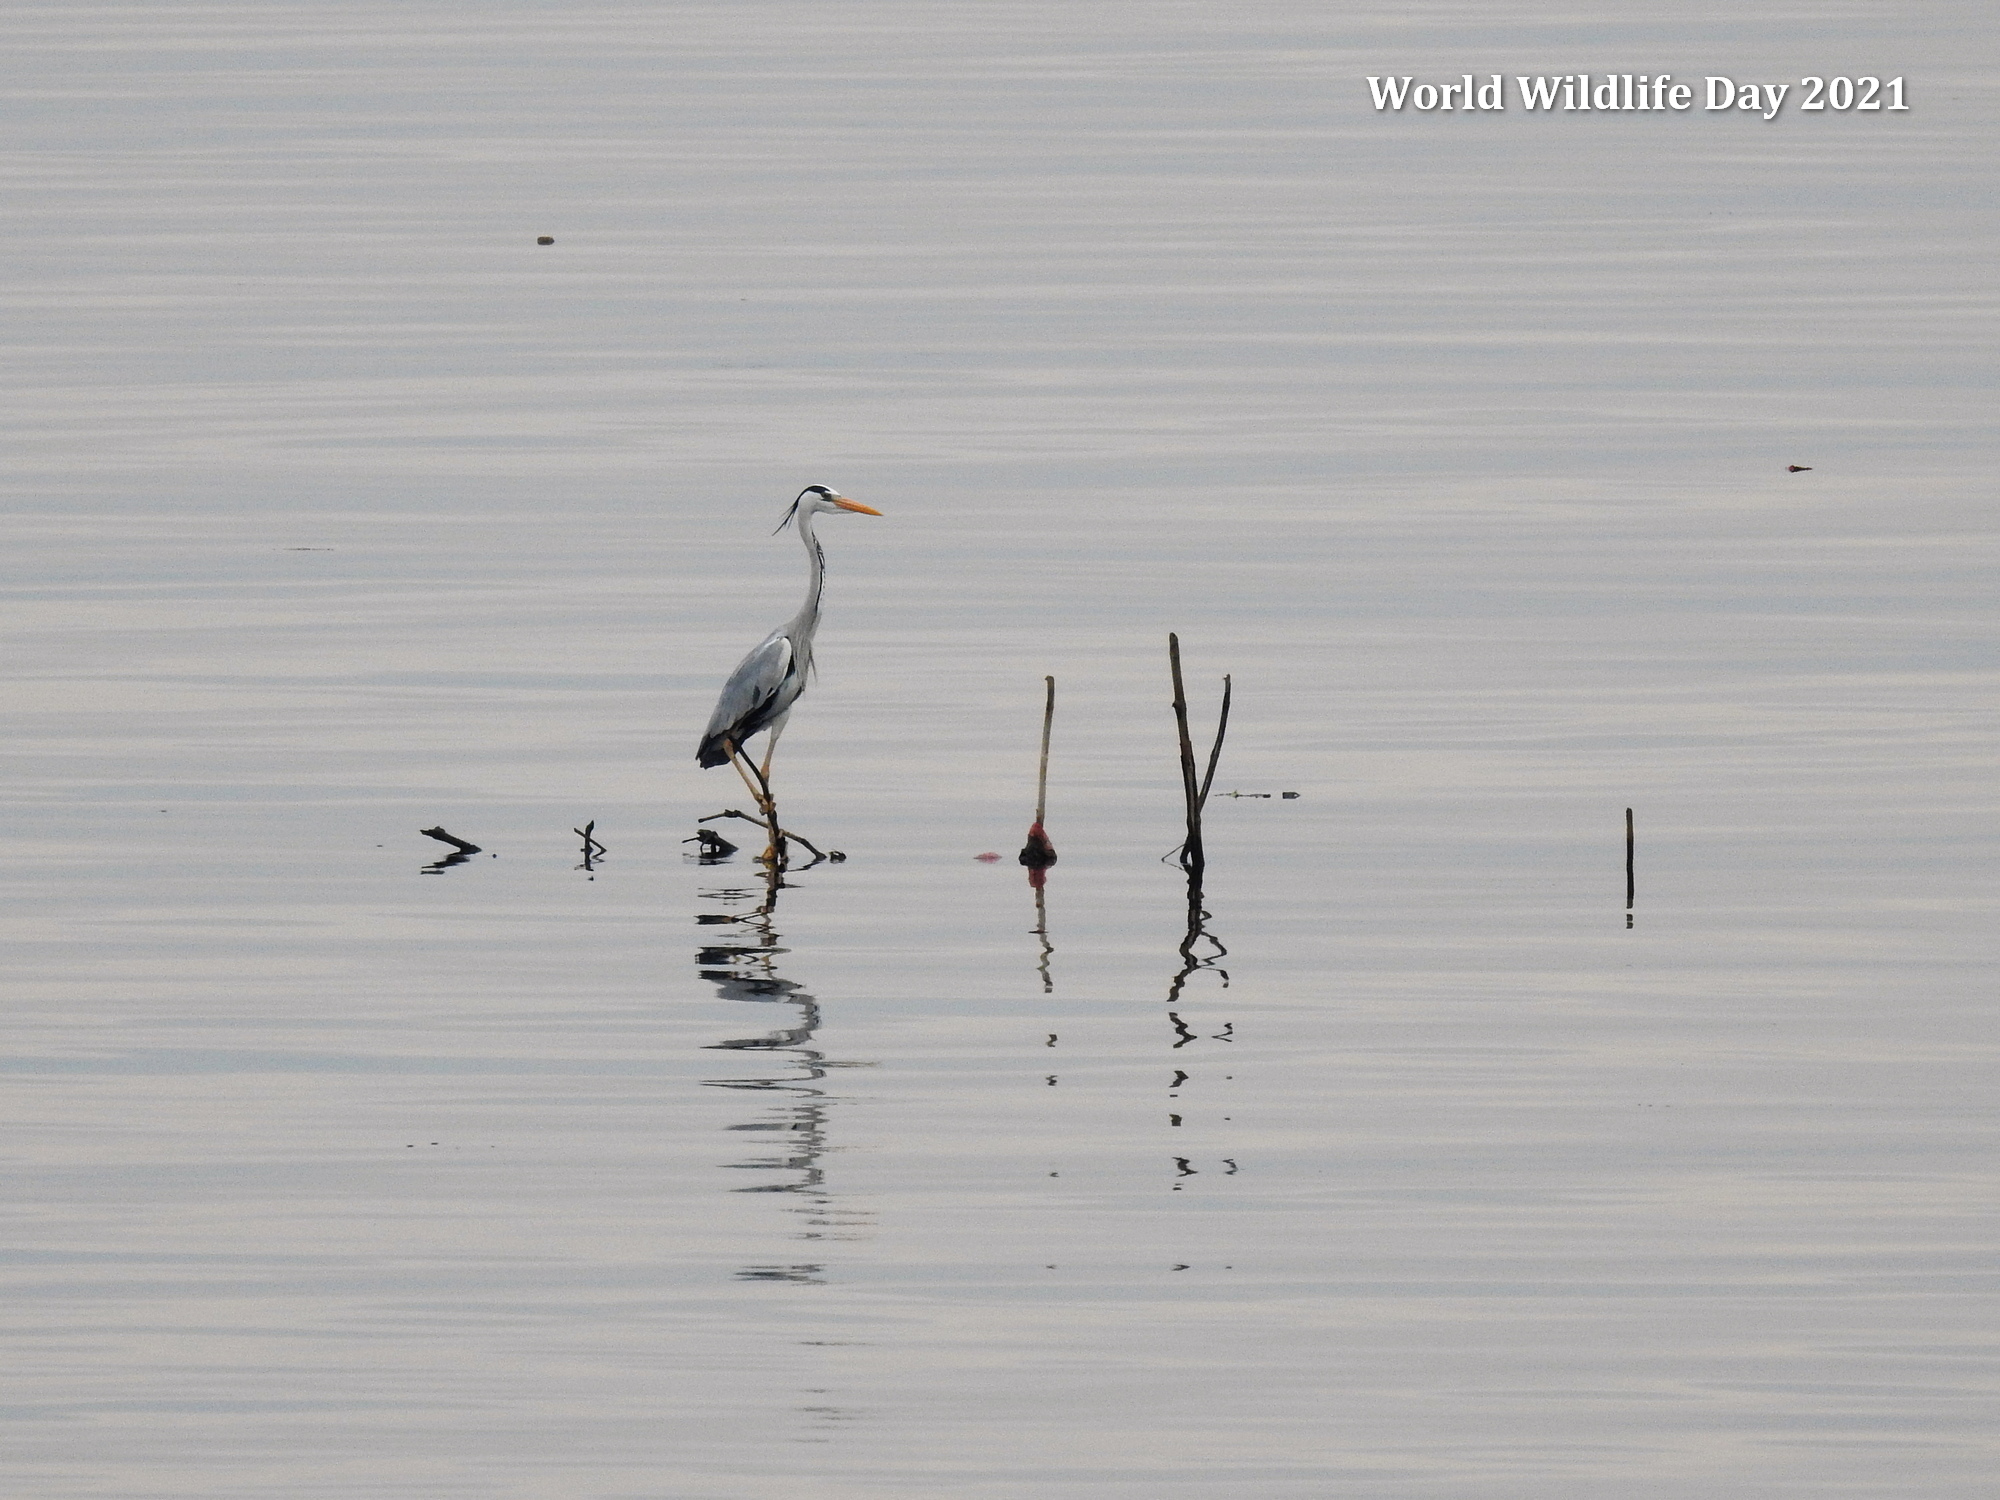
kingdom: Animalia
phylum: Chordata
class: Aves
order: Pelecaniformes
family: Ardeidae
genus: Ardea
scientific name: Ardea cinerea
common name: Grey heron
